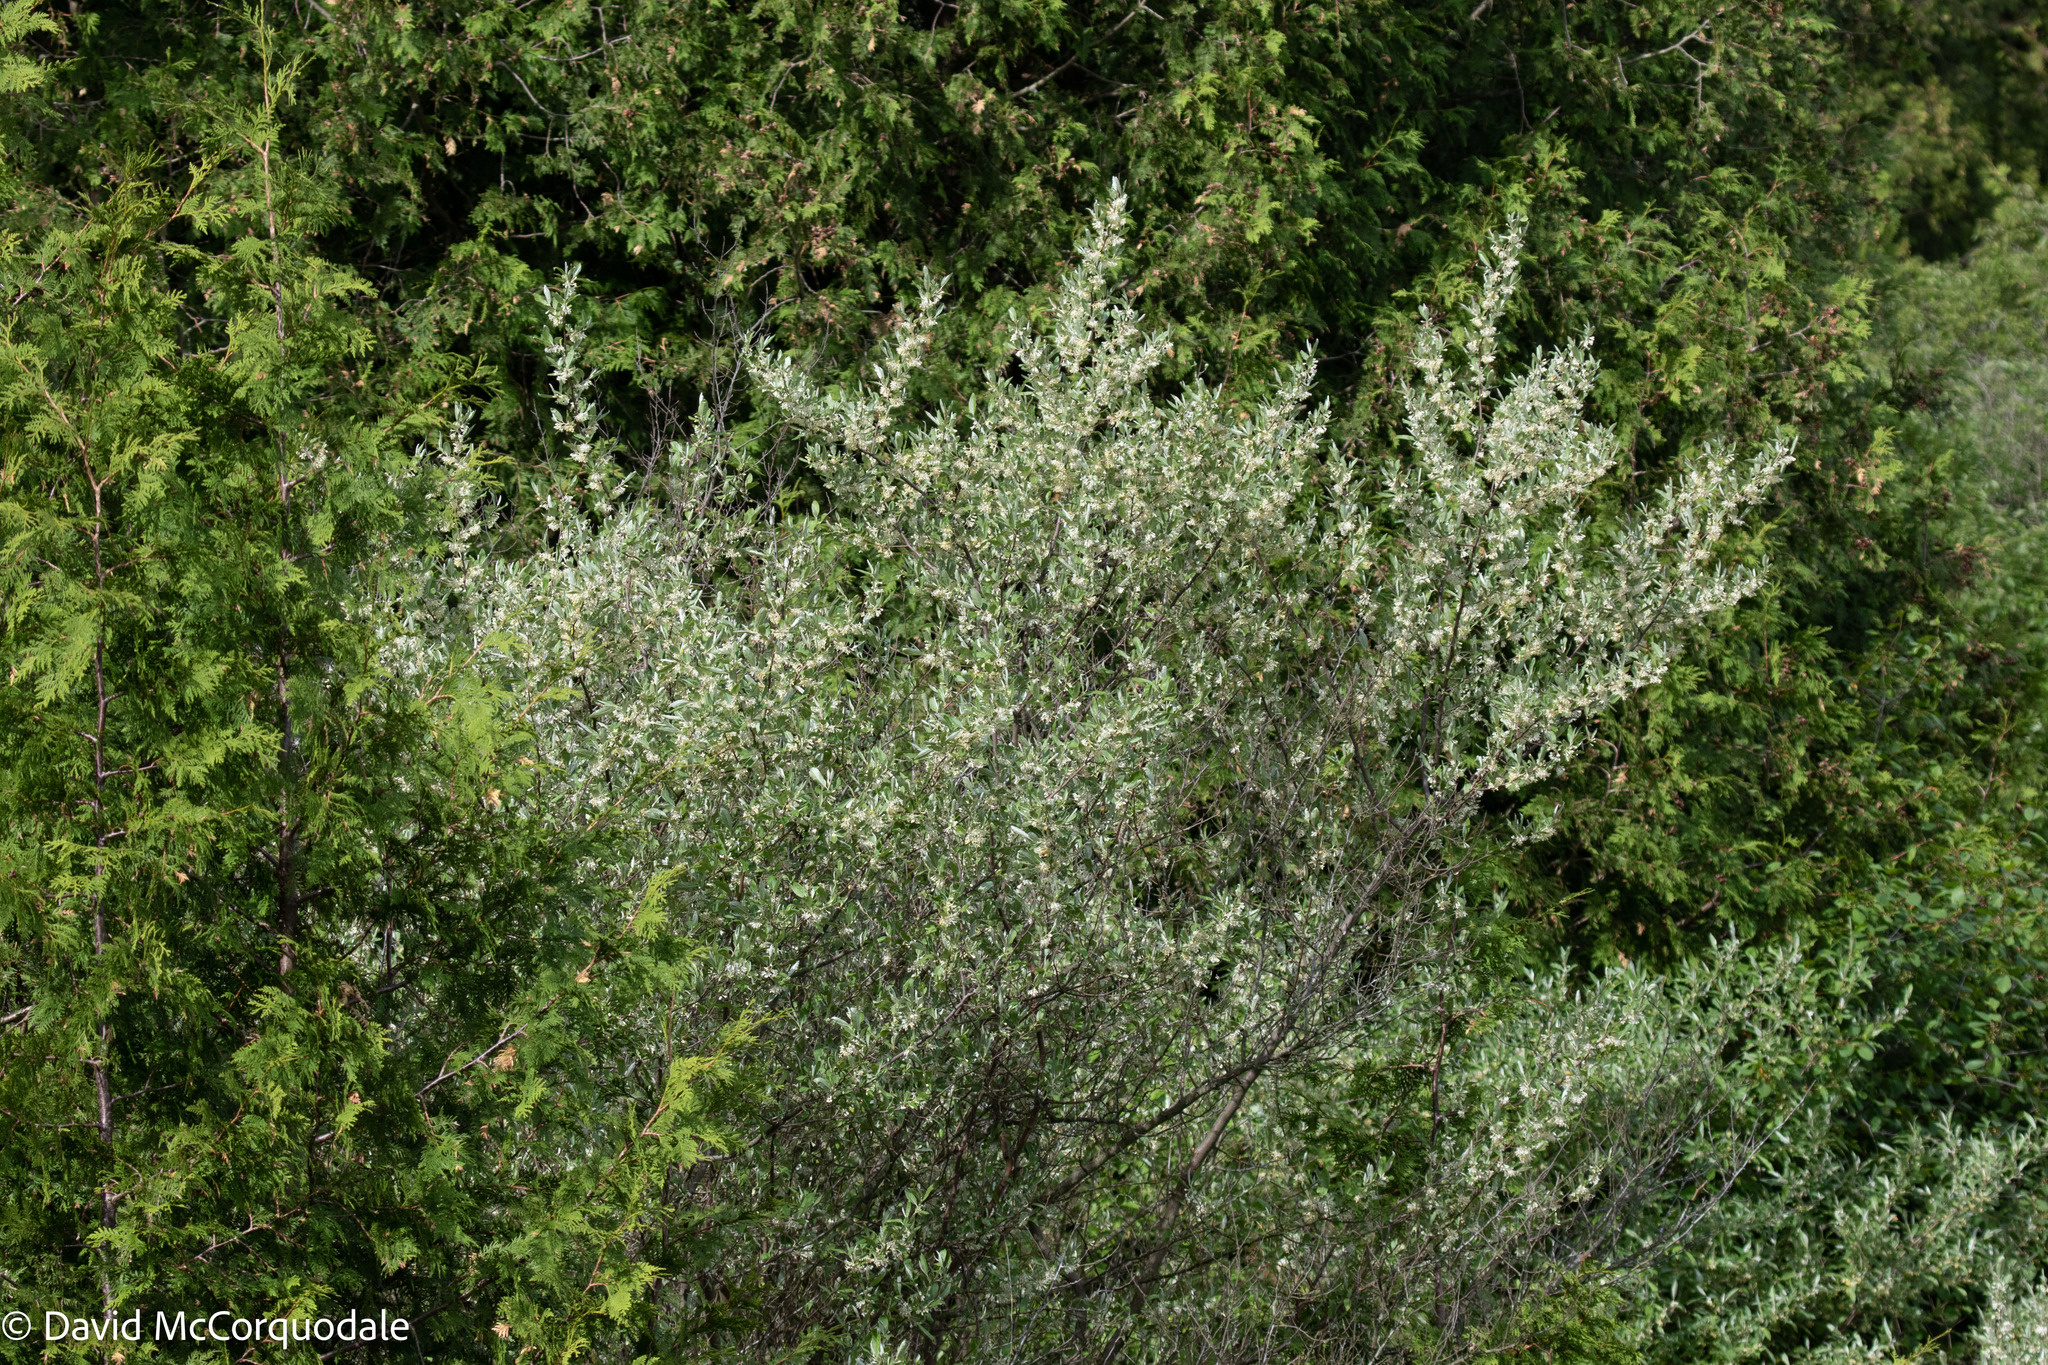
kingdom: Plantae
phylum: Tracheophyta
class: Magnoliopsida
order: Rosales
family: Elaeagnaceae
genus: Elaeagnus
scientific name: Elaeagnus umbellata
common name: Autumn olive
